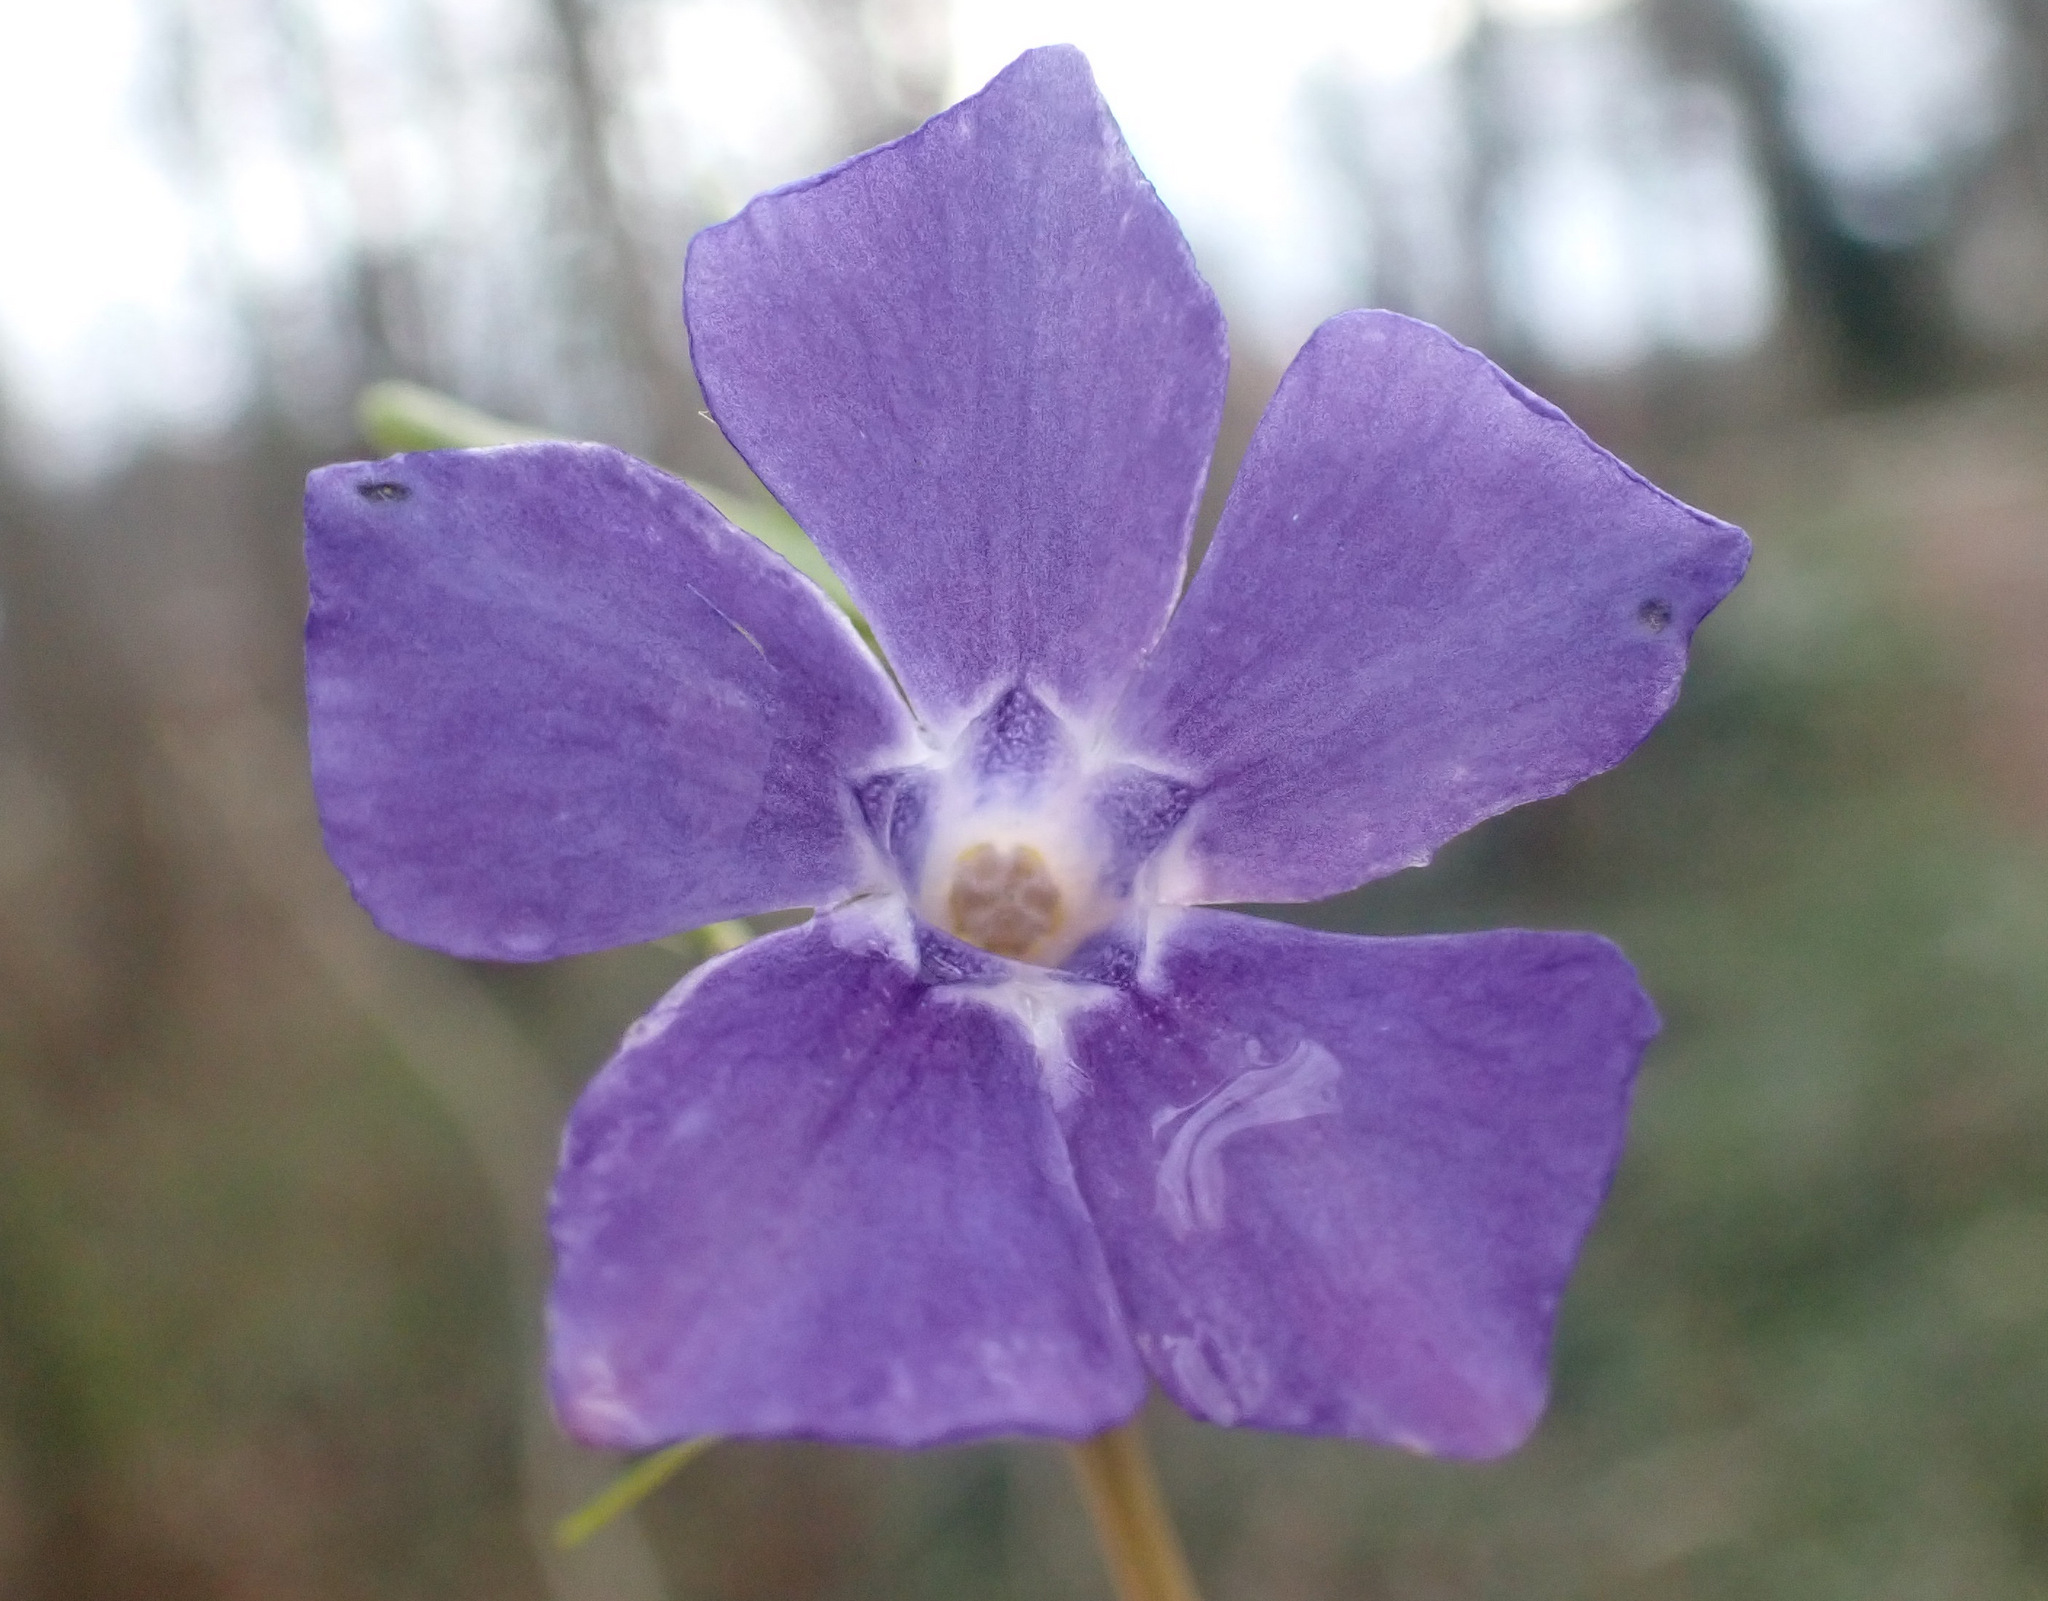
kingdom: Plantae
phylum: Tracheophyta
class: Magnoliopsida
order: Gentianales
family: Apocynaceae
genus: Vinca
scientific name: Vinca minor
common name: Lesser periwinkle
